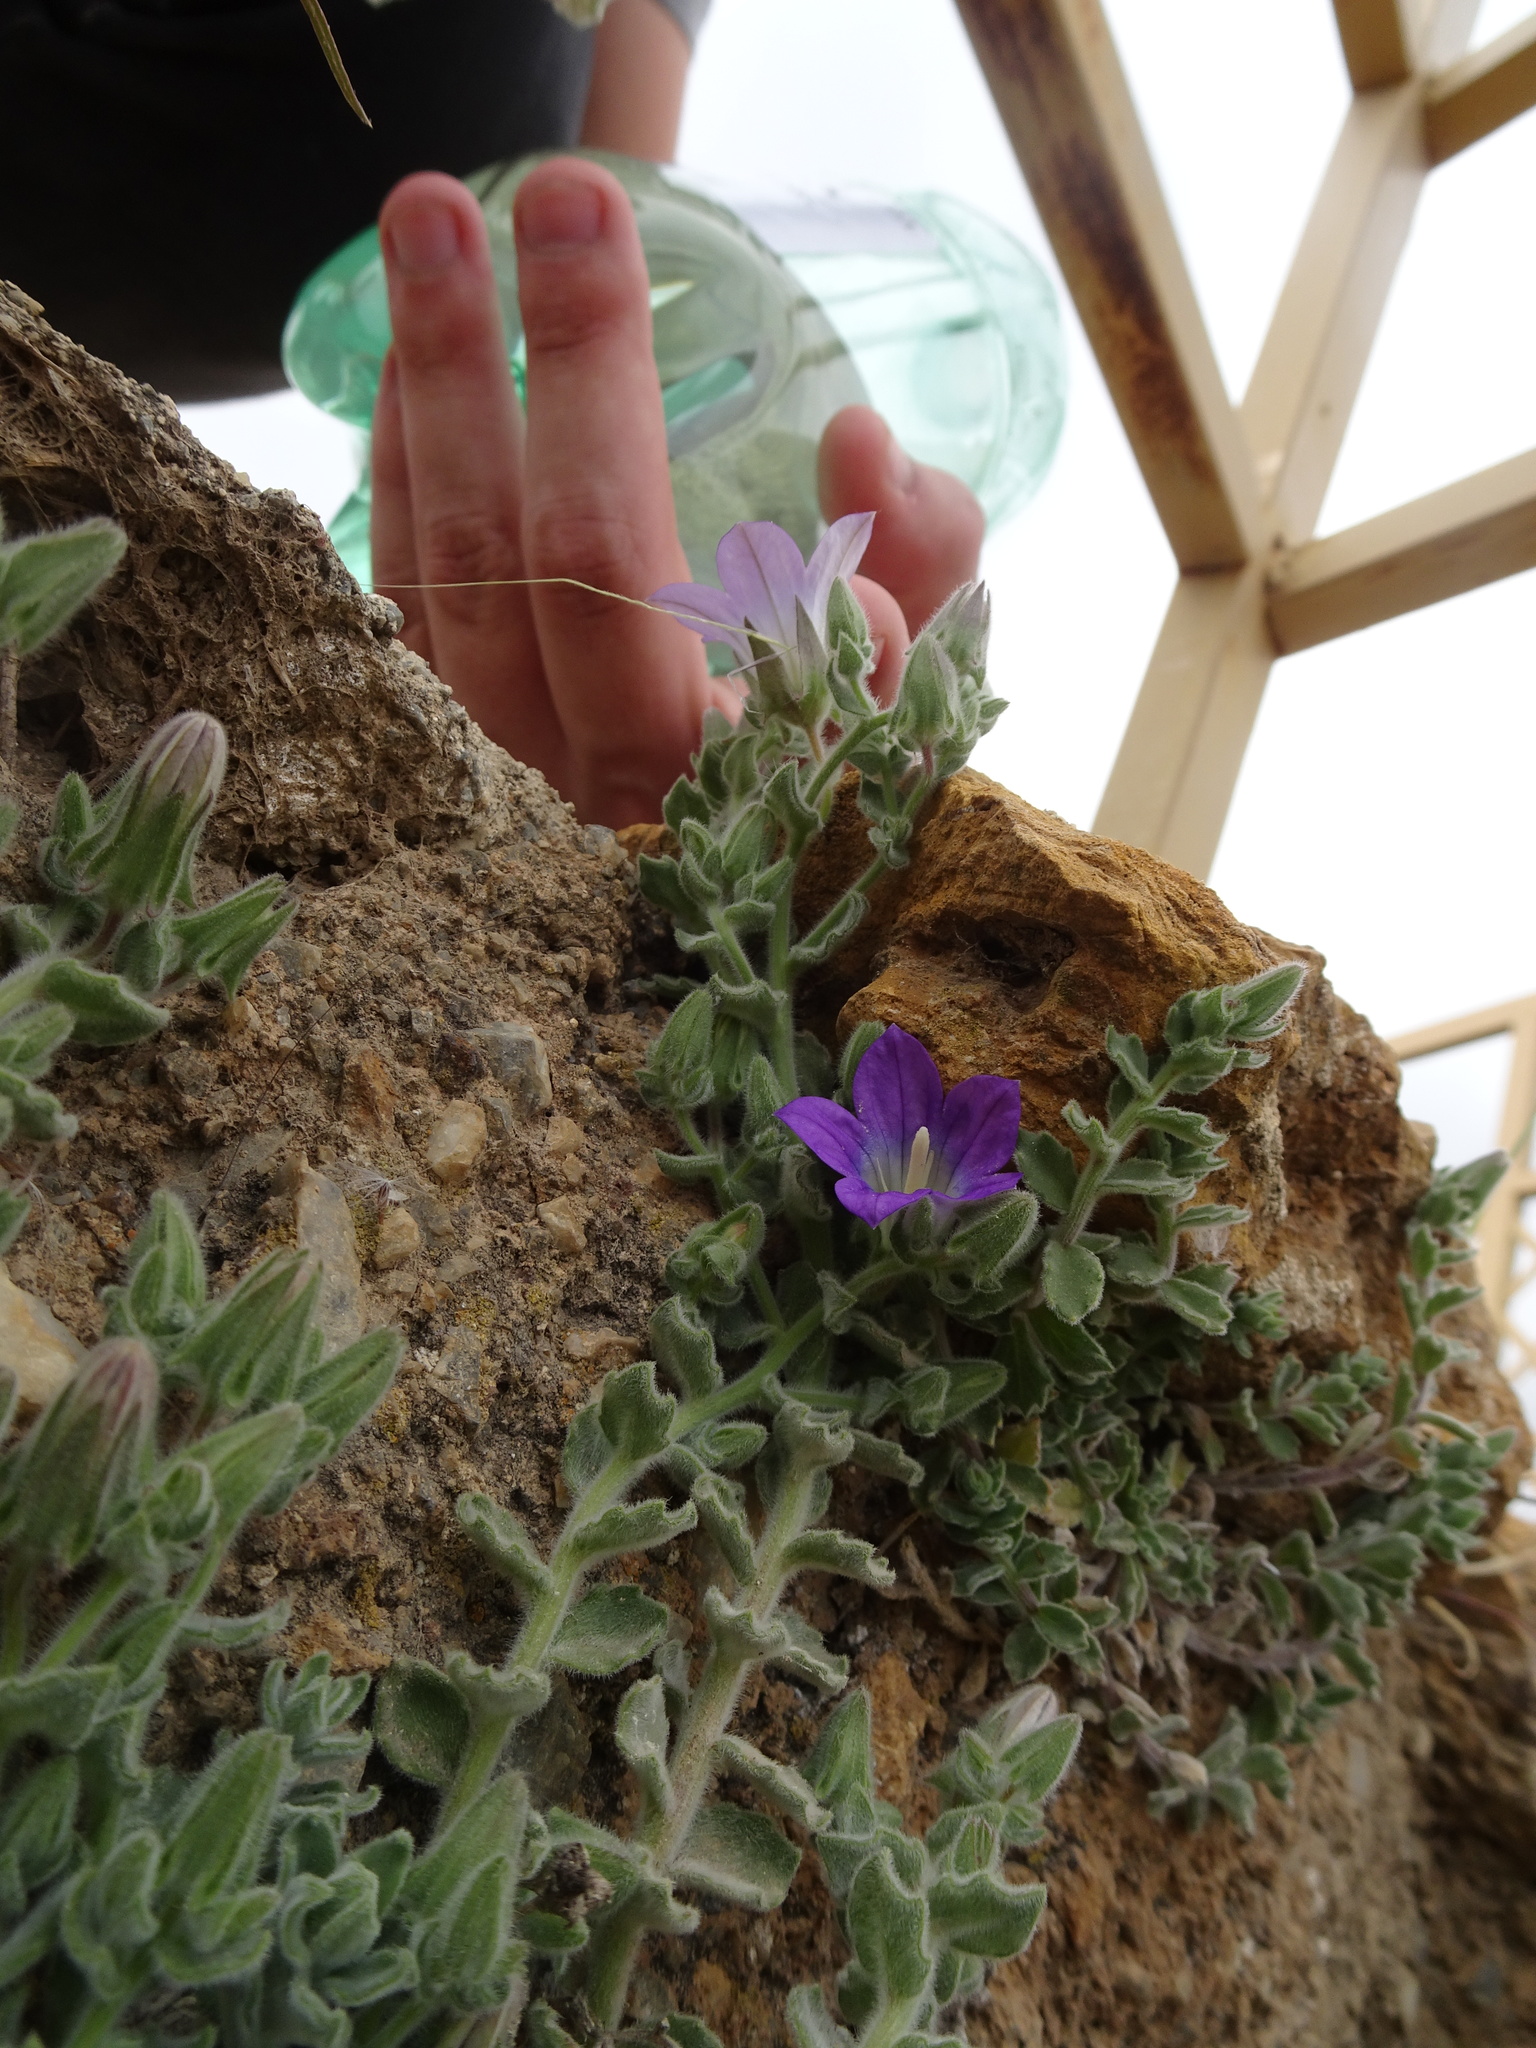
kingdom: Plantae
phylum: Tracheophyta
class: Magnoliopsida
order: Asterales
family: Campanulaceae
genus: Campanula
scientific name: Campanula mollis
